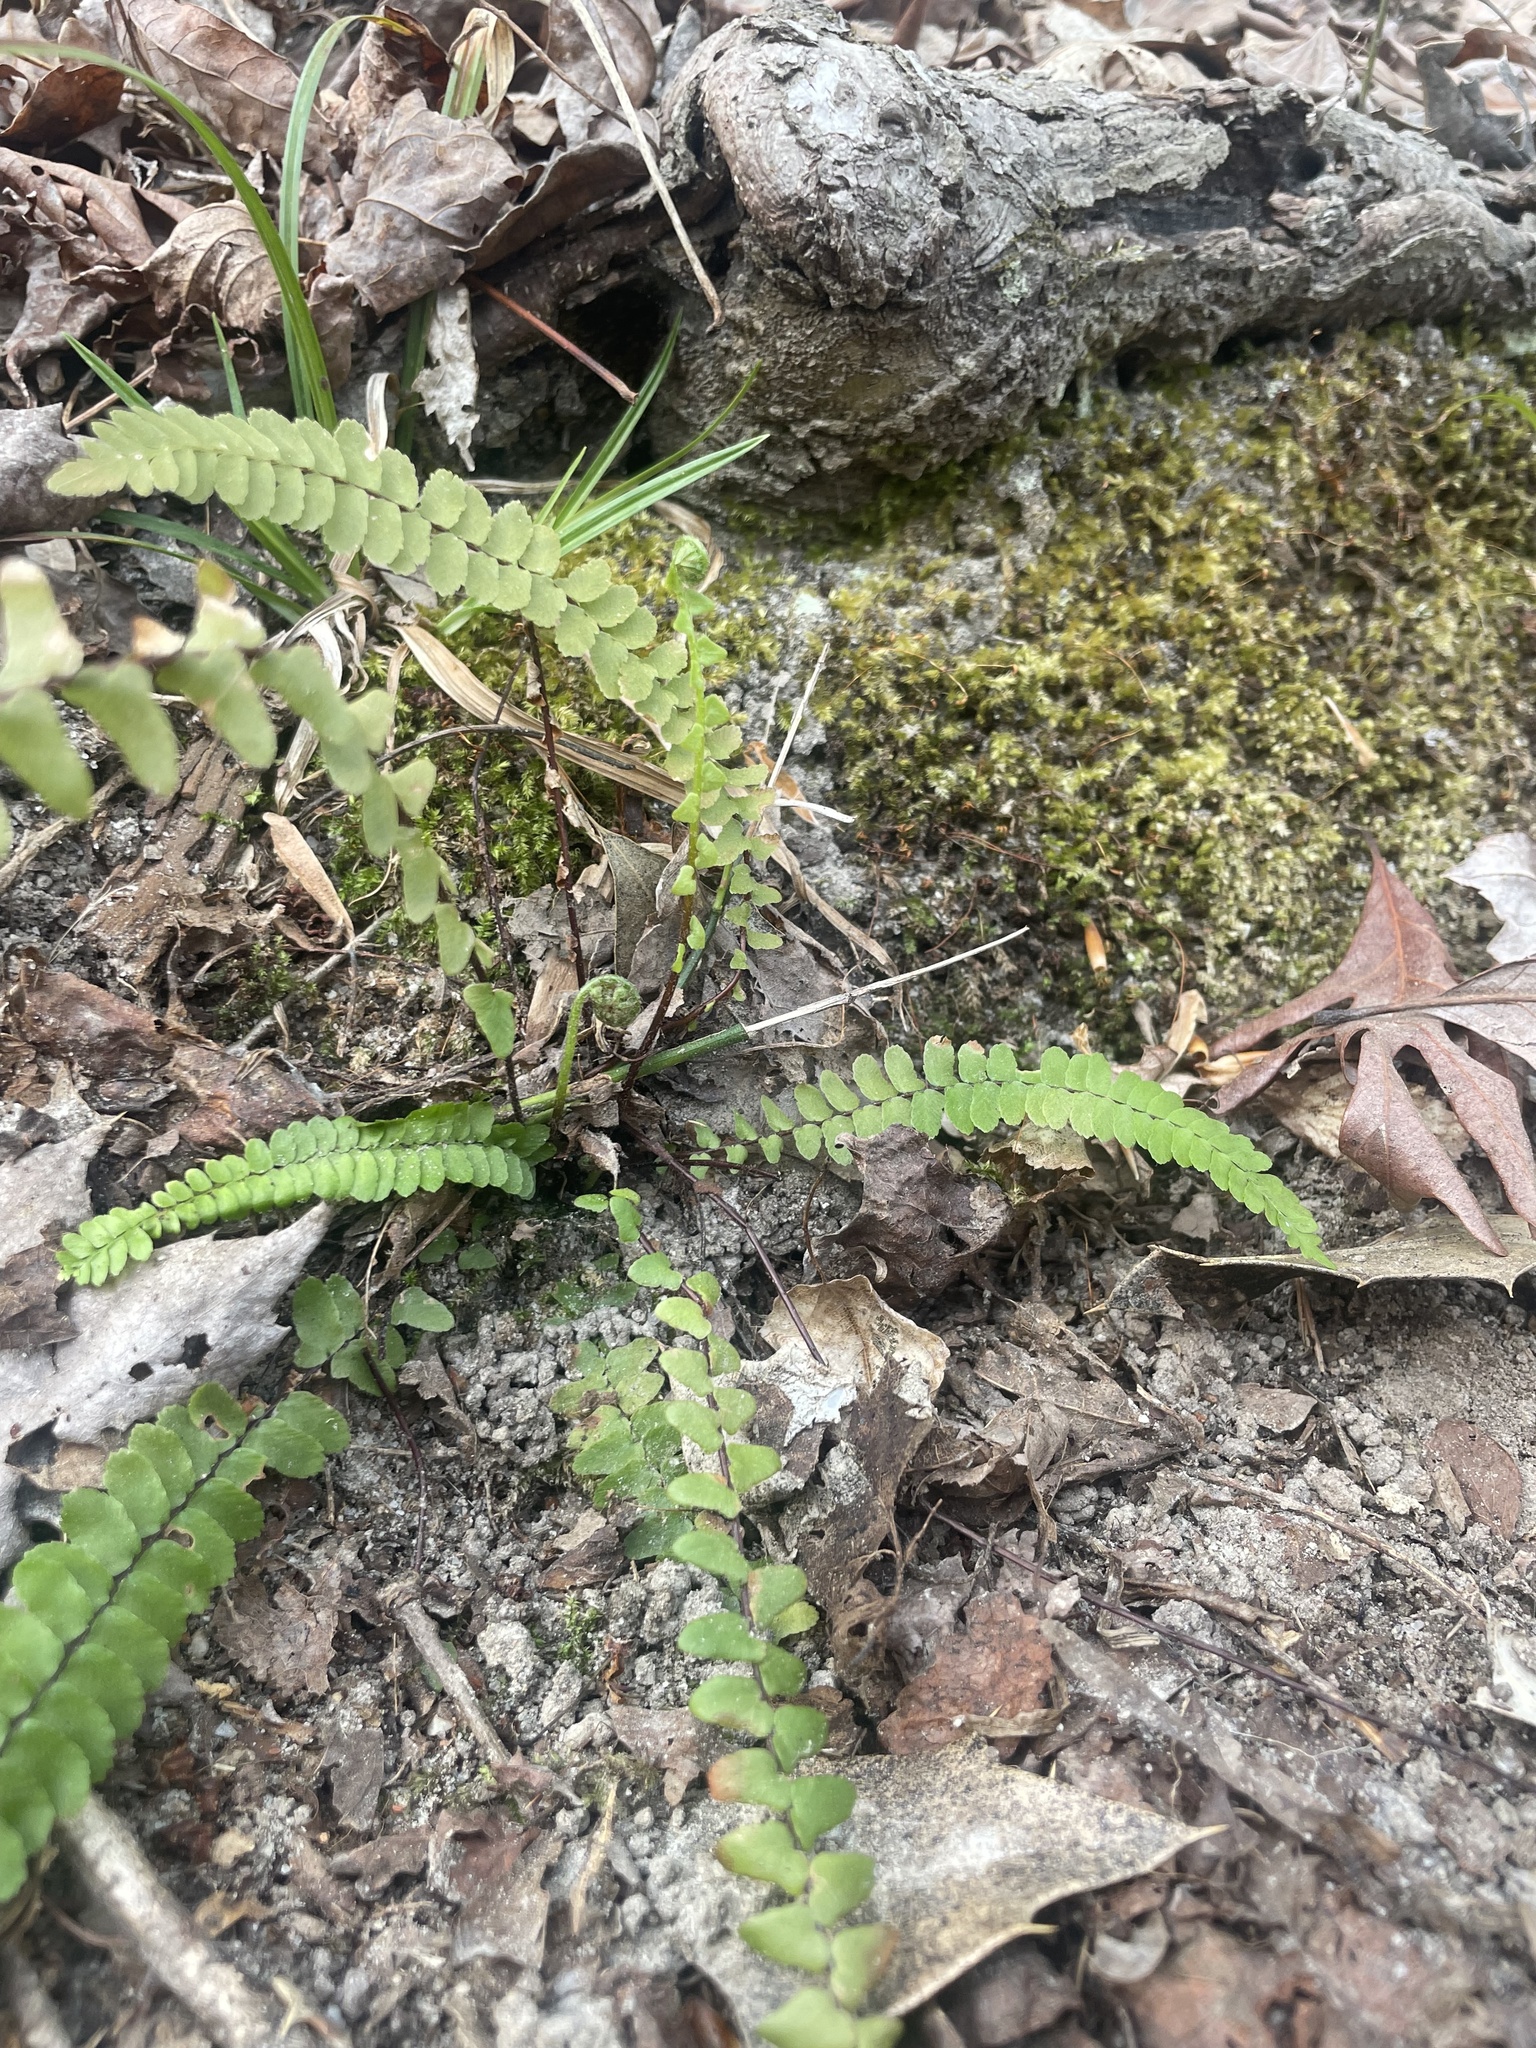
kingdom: Plantae
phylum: Tracheophyta
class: Polypodiopsida
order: Polypodiales
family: Aspleniaceae
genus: Asplenium
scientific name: Asplenium platyneuron
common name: Ebony spleenwort
